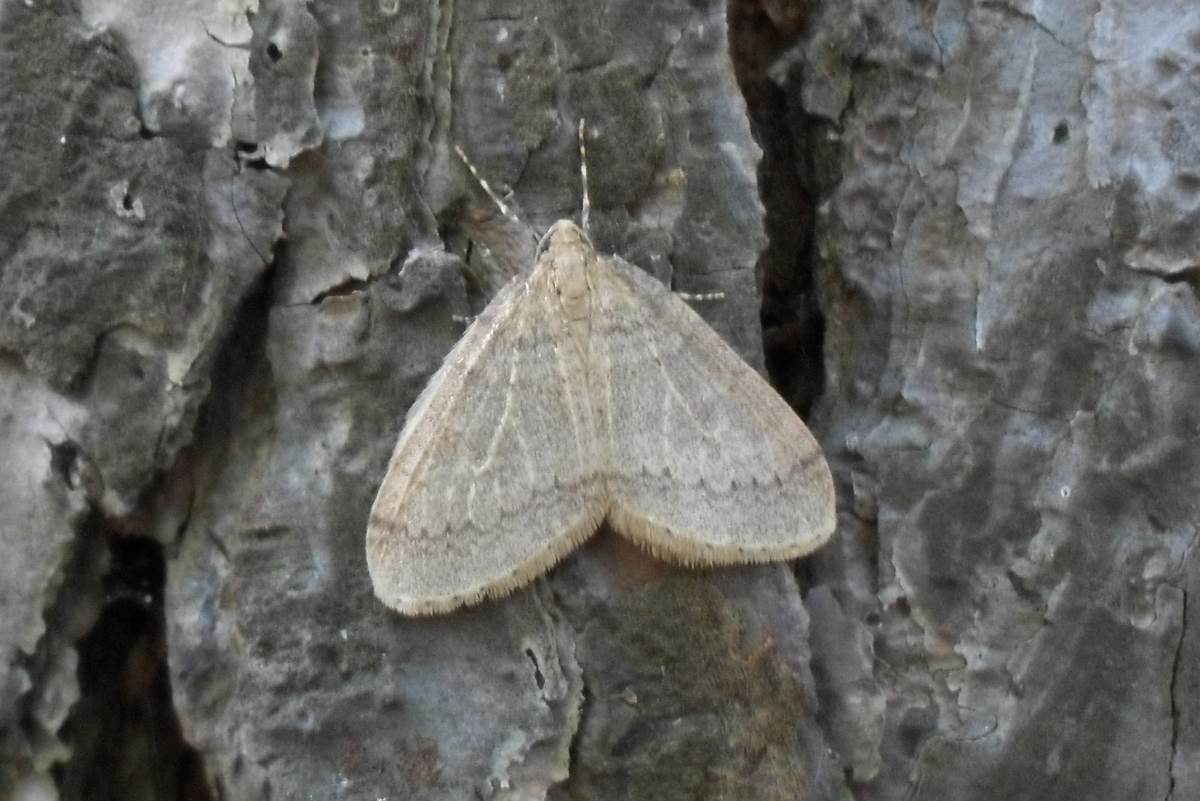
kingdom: Animalia
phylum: Arthropoda
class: Insecta
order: Lepidoptera
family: Geometridae
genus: Operophtera
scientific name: Operophtera brumata
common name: Winter moth
